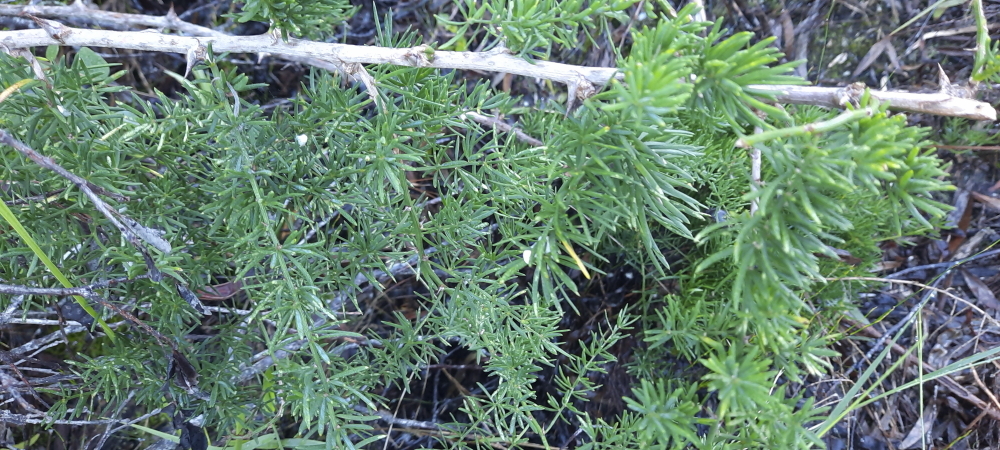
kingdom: Plantae
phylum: Tracheophyta
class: Liliopsida
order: Asparagales
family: Asparagaceae
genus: Asparagus
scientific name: Asparagus aethiopicus
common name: Sprenger's asparagus fern
